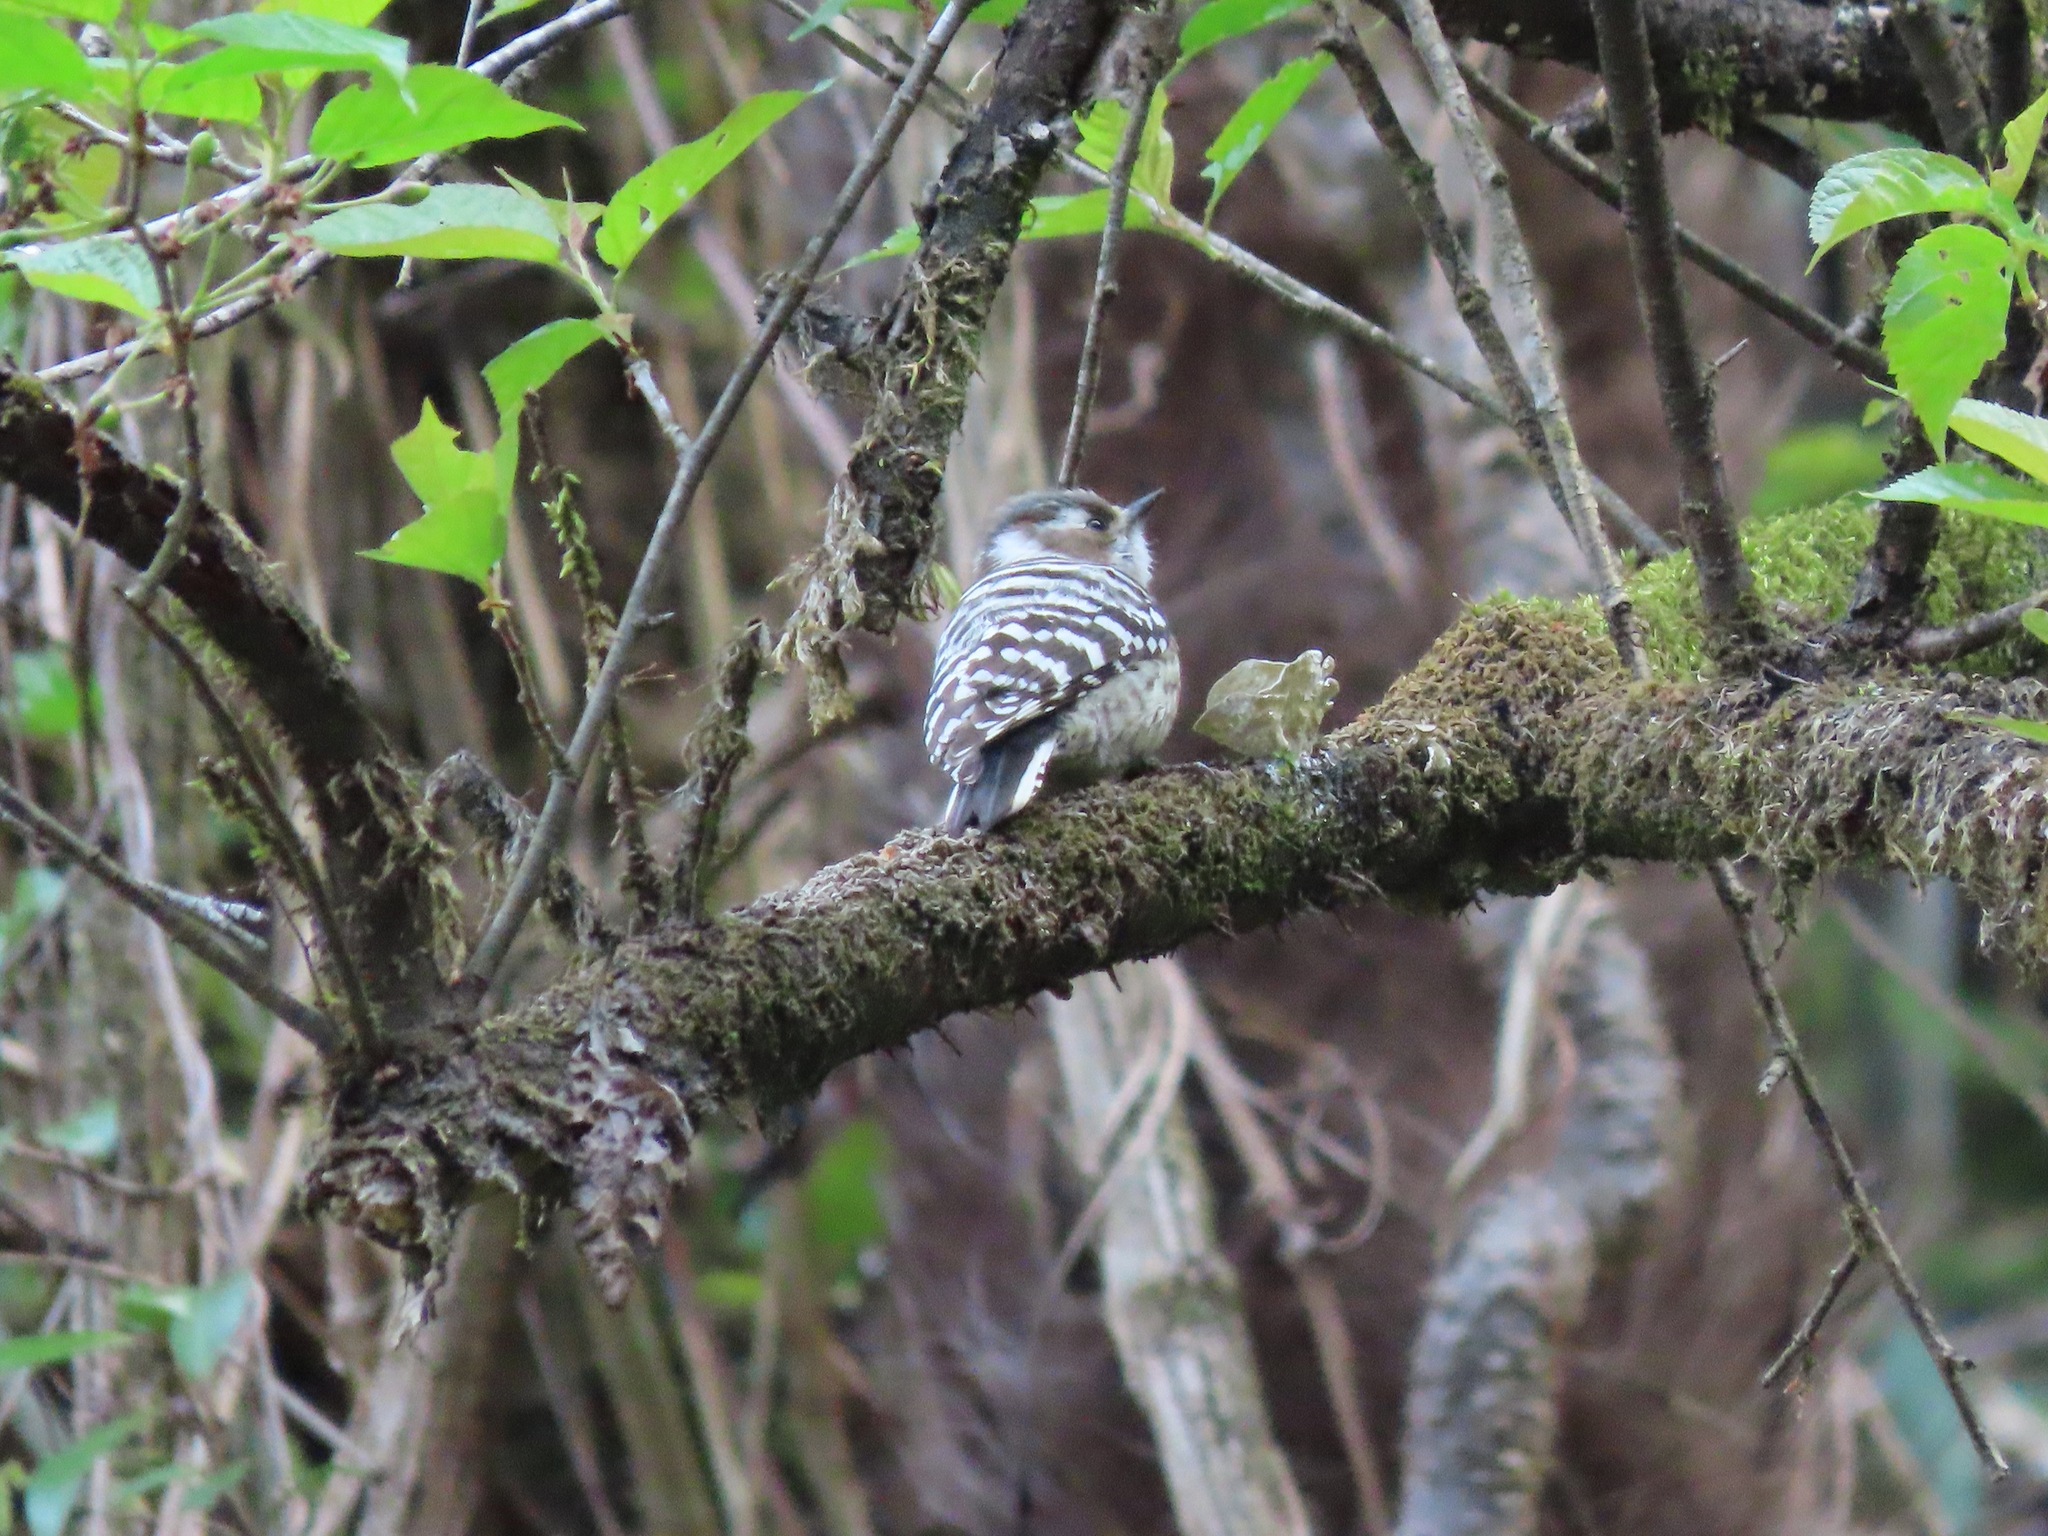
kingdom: Animalia
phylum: Chordata
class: Aves
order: Piciformes
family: Picidae
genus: Yungipicus
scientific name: Yungipicus kizuki
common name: Japanese pygmy woodpecker
